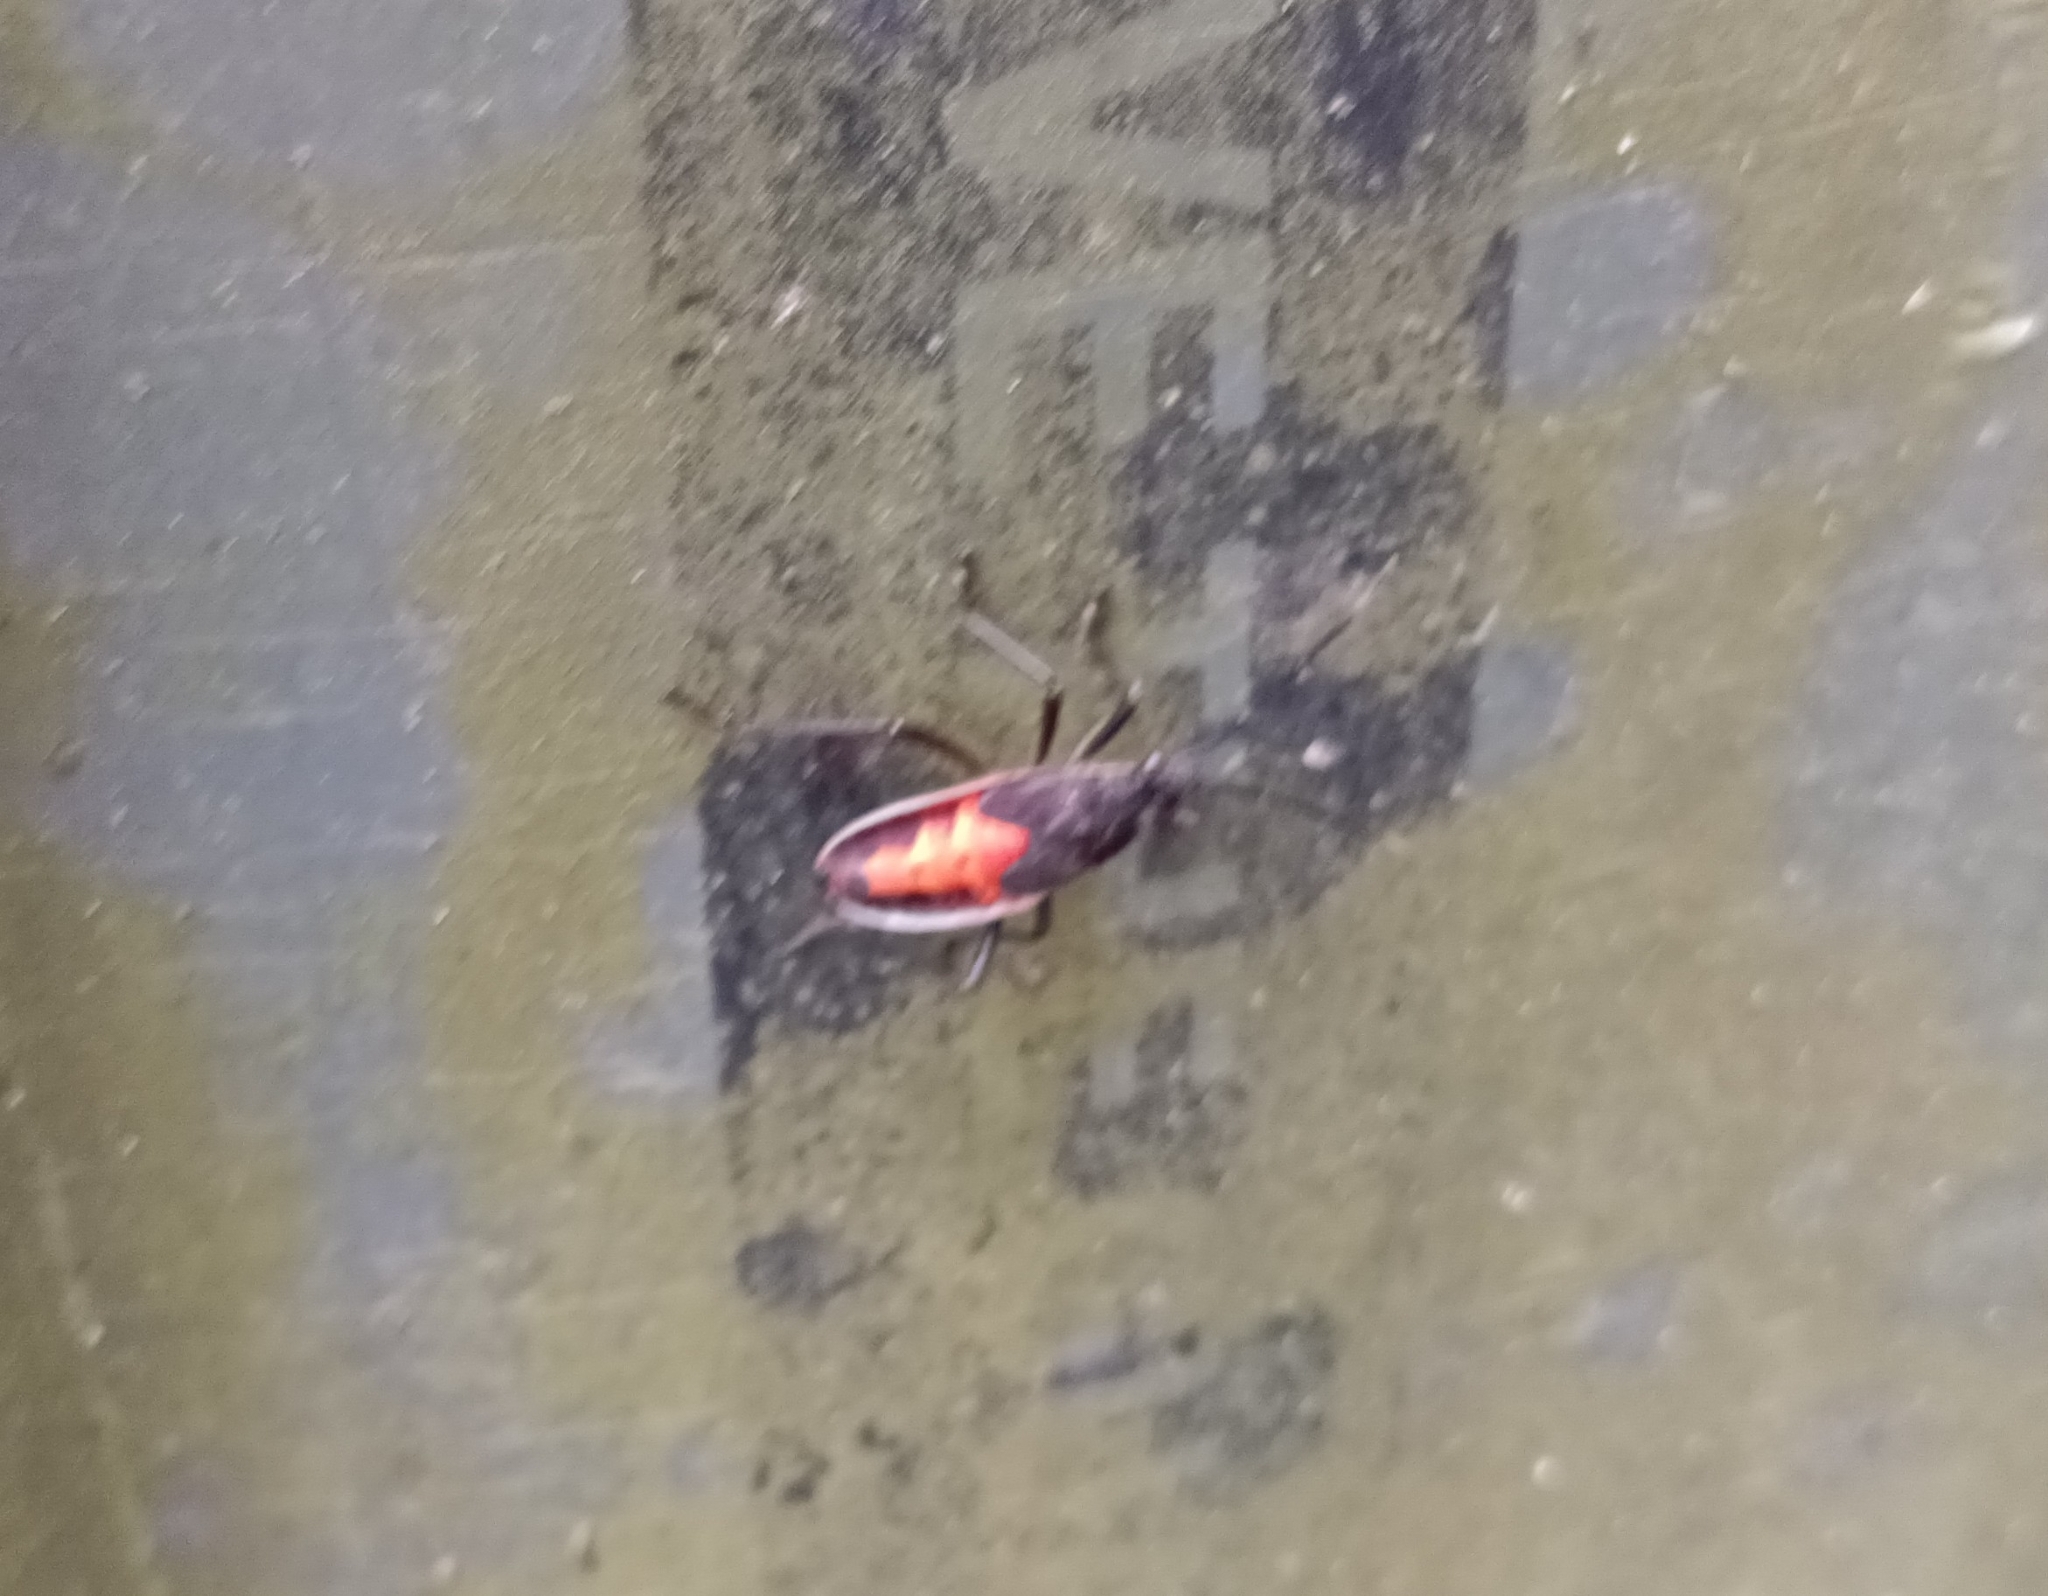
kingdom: Animalia
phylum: Arthropoda
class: Insecta
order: Hemiptera
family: Pyrrhocoridae
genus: Melamphaus
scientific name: Melamphaus
